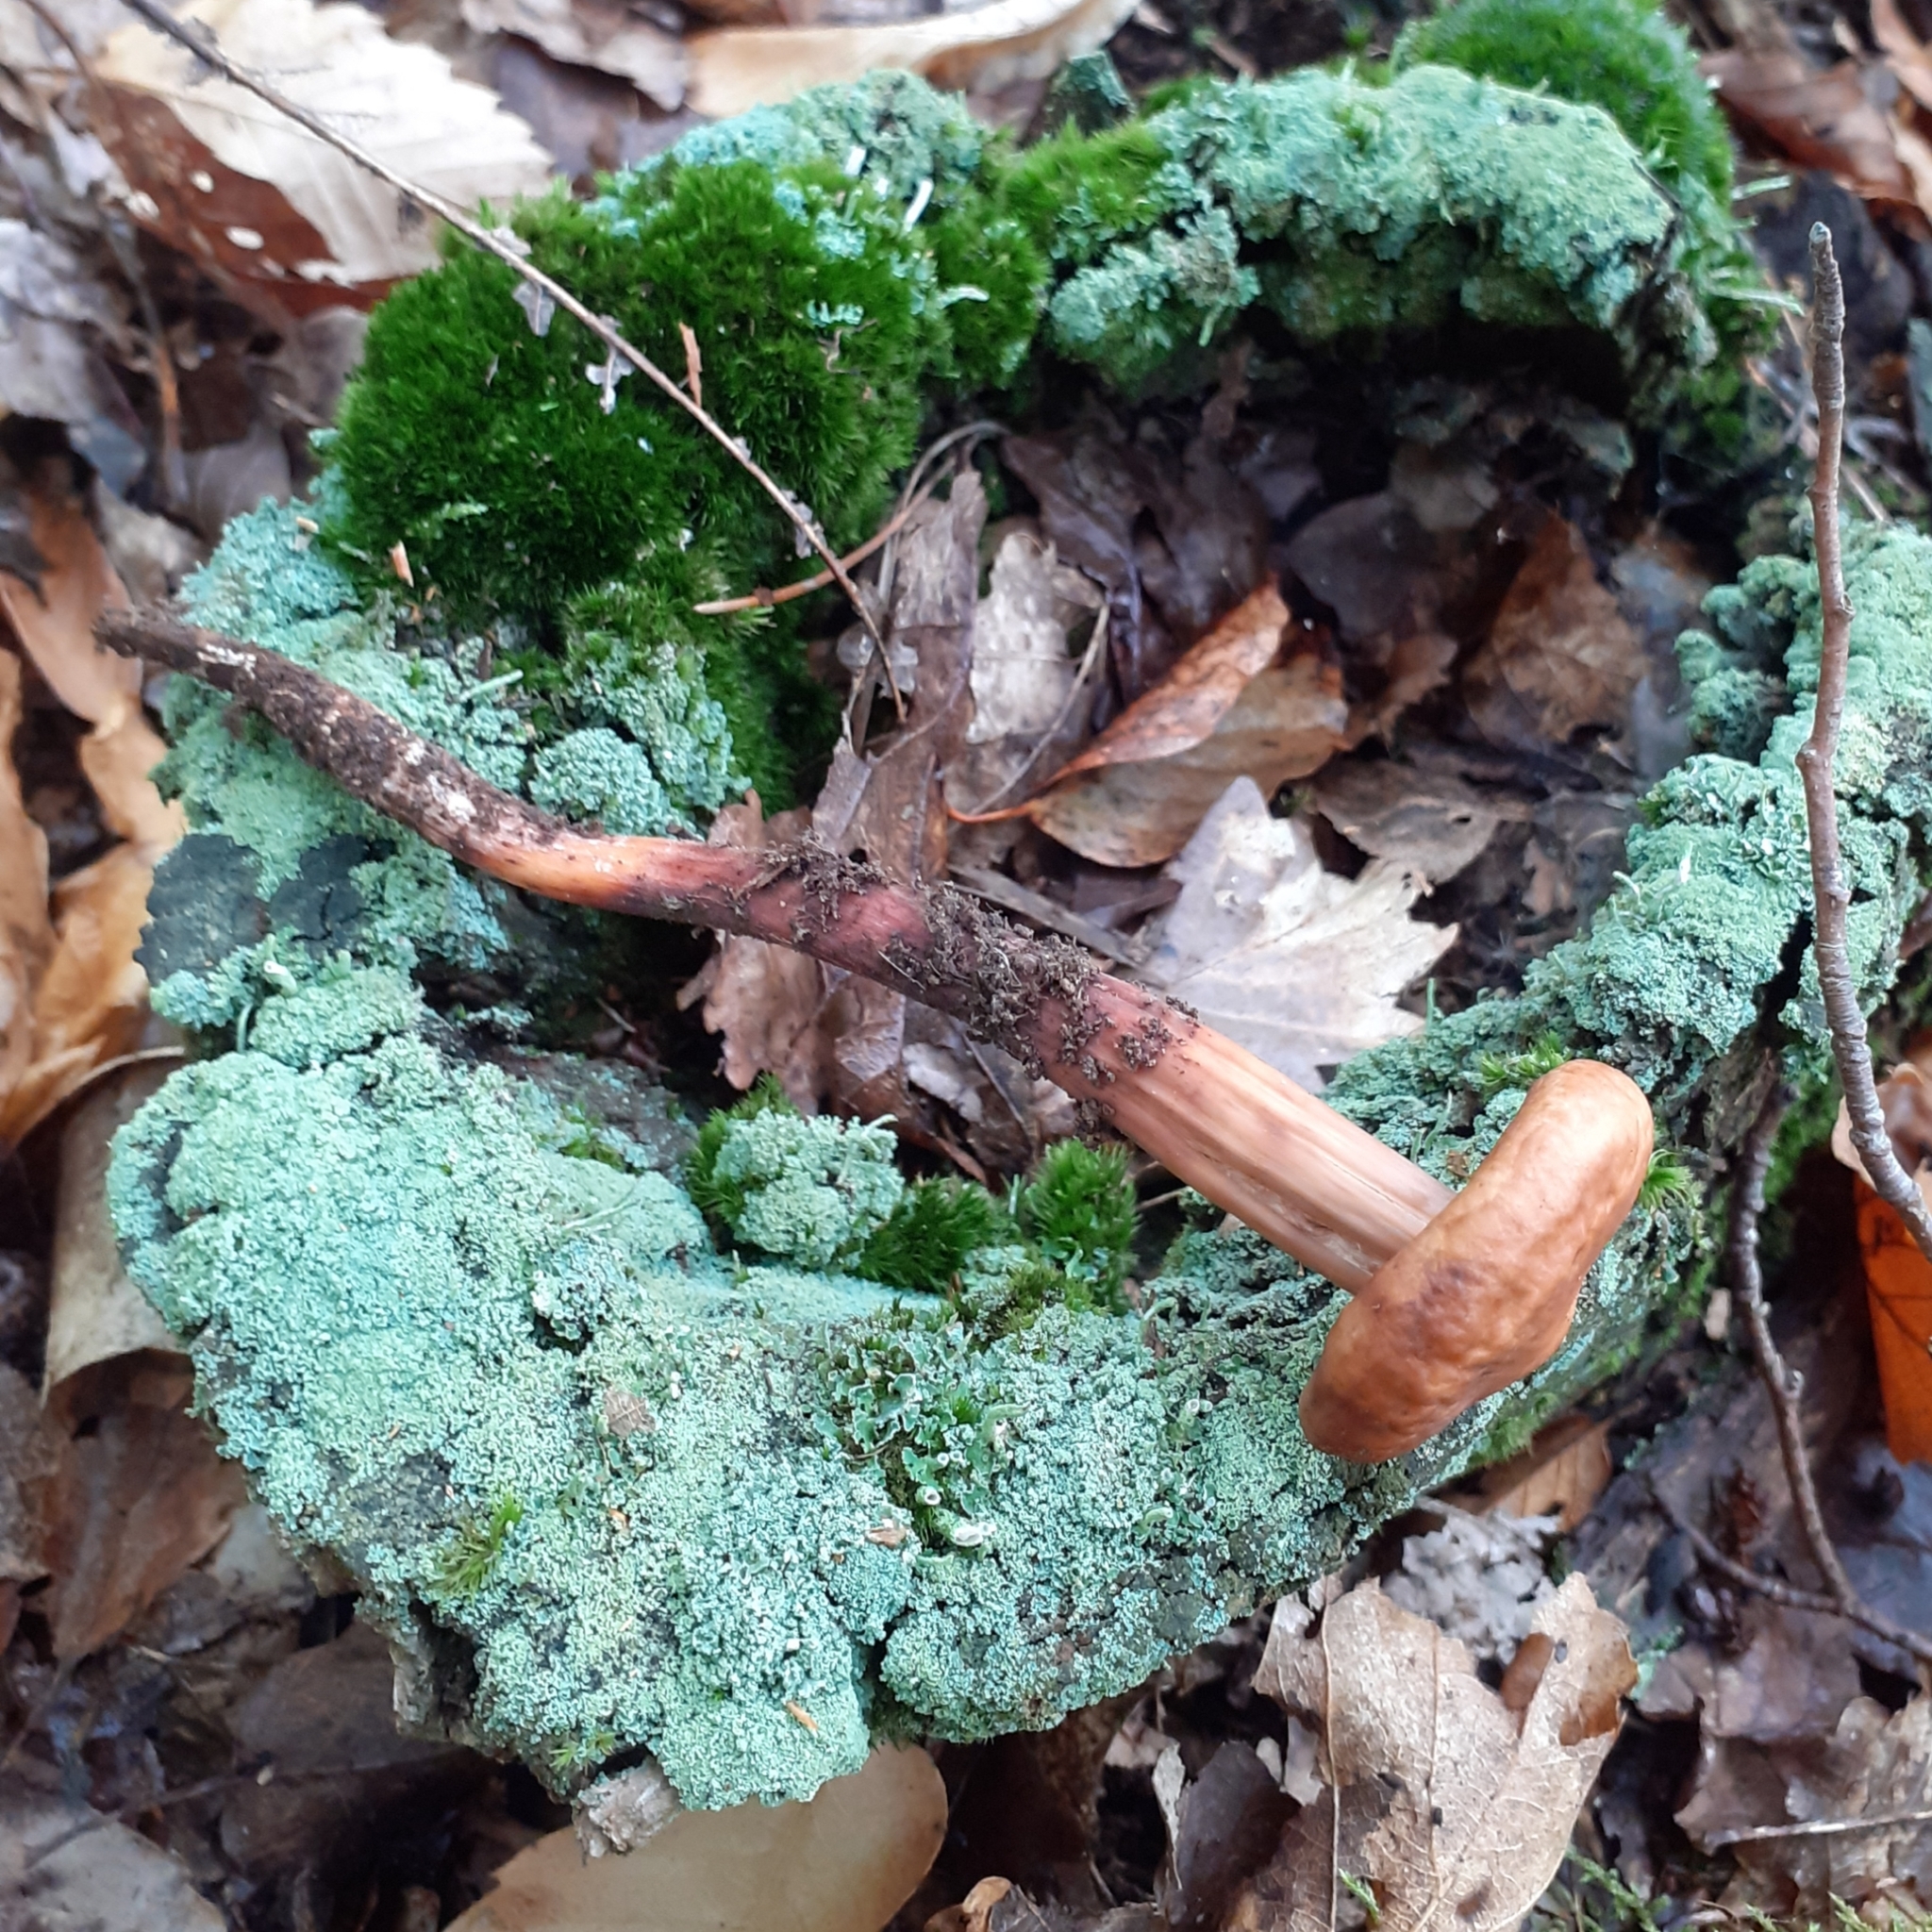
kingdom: Fungi
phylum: Basidiomycota
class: Agaricomycetes
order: Agaricales
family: Omphalotaceae
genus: Gymnopus
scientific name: Gymnopus fusipes
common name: Spindle shank
